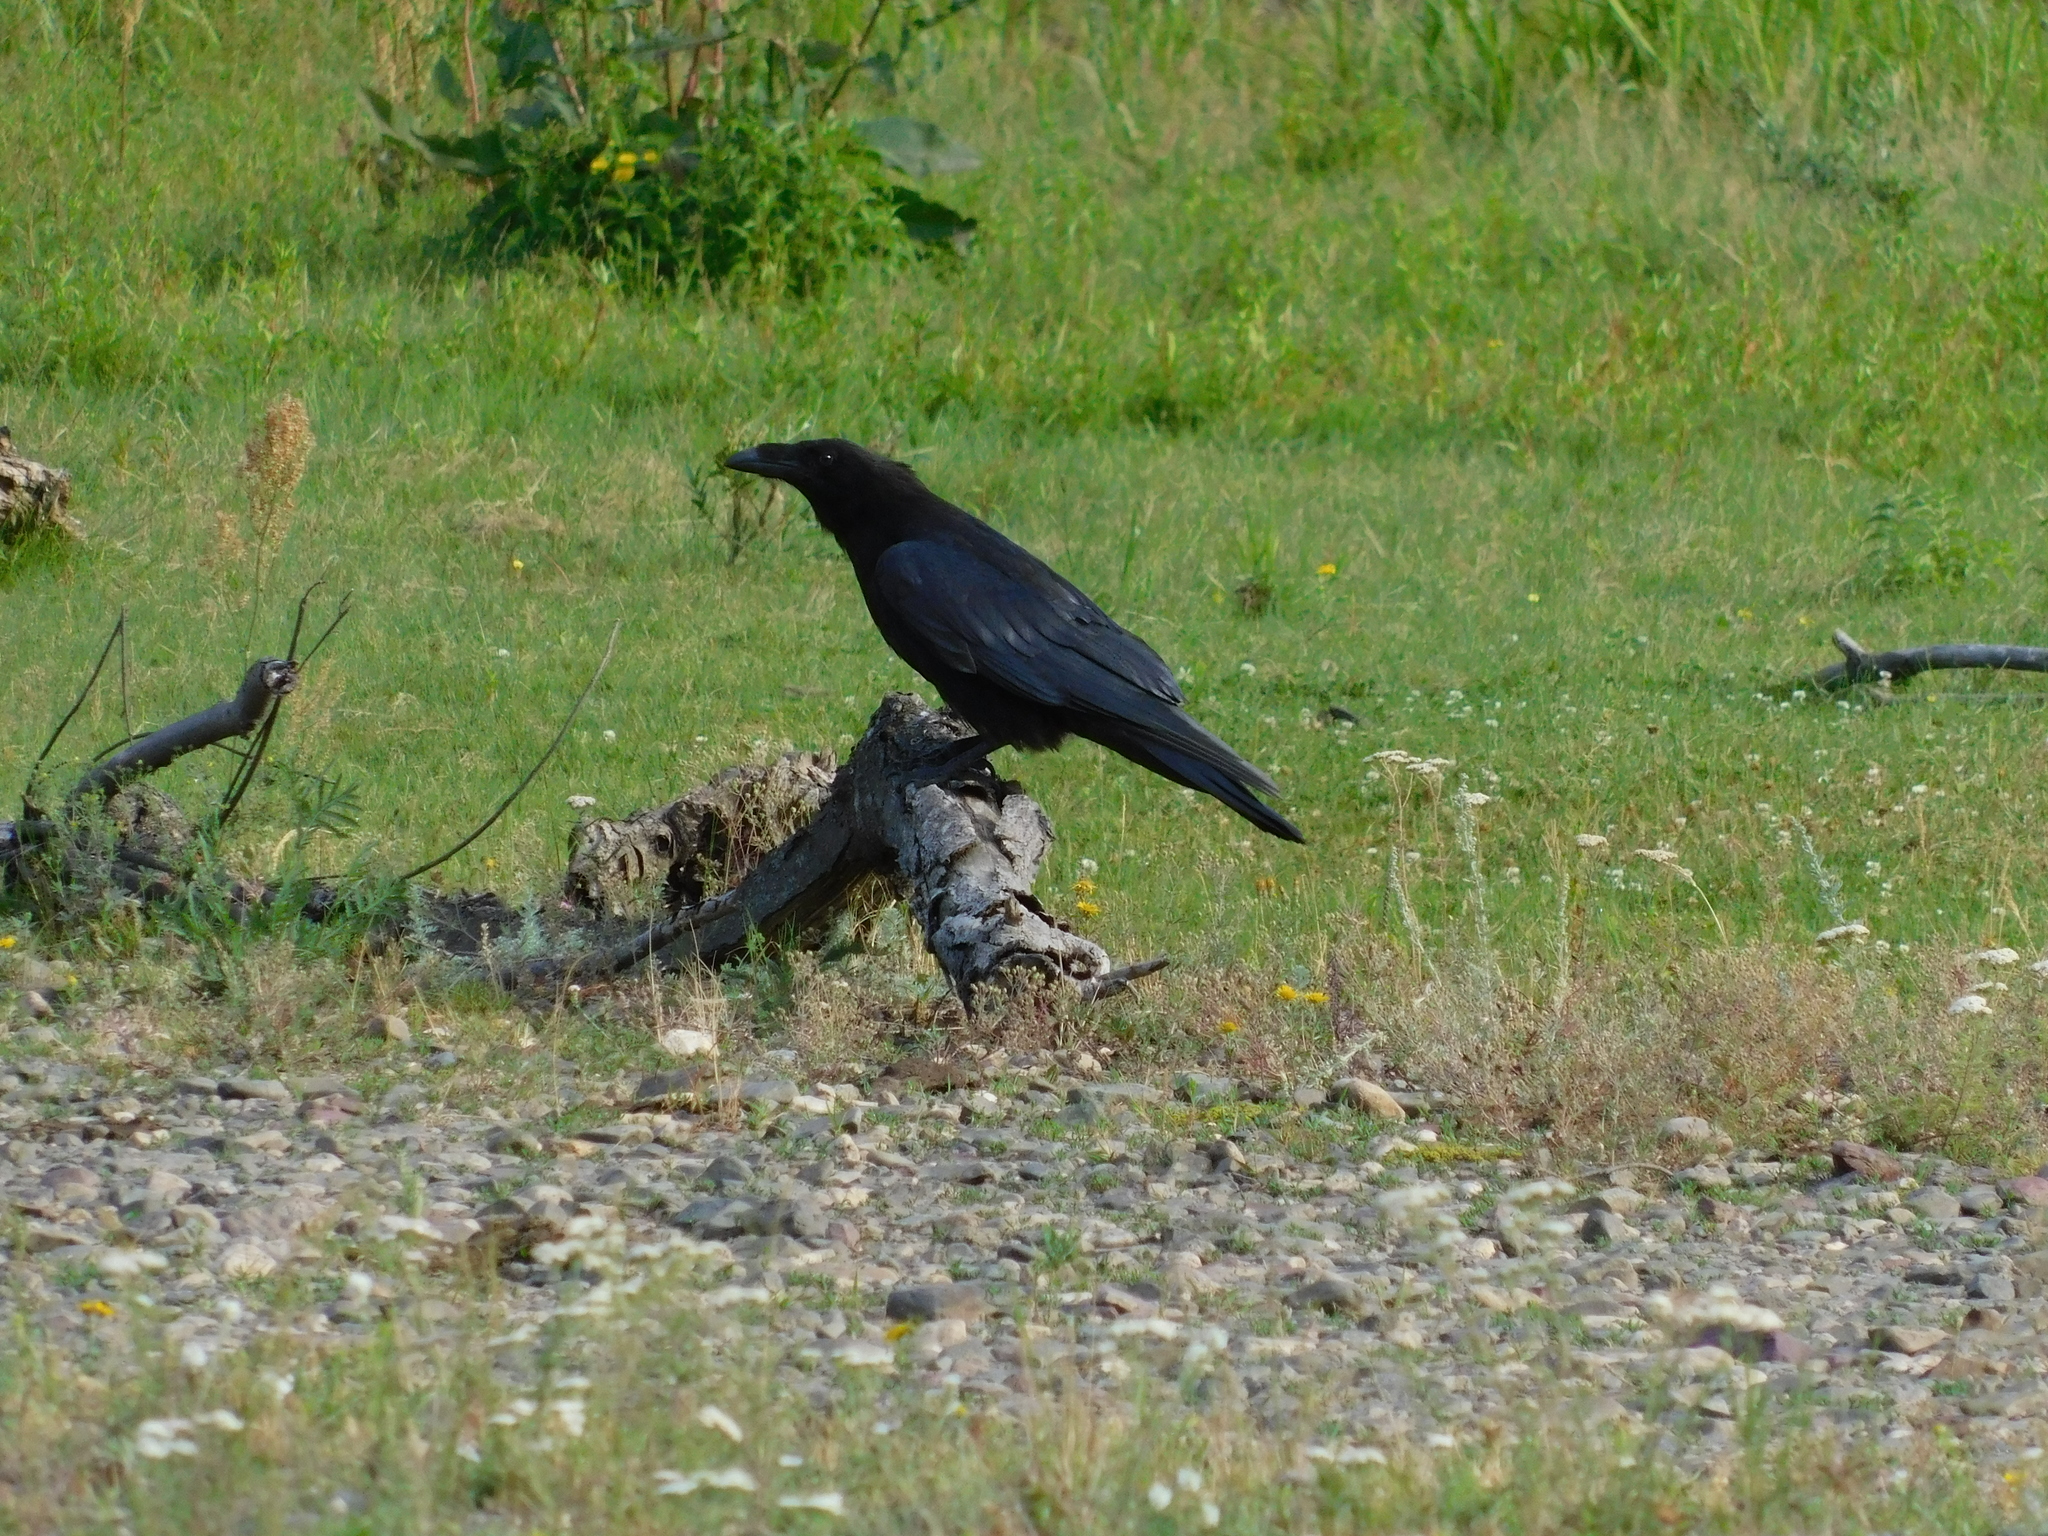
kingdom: Animalia
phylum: Chordata
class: Aves
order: Passeriformes
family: Corvidae
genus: Corvus
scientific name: Corvus corax
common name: Common raven
